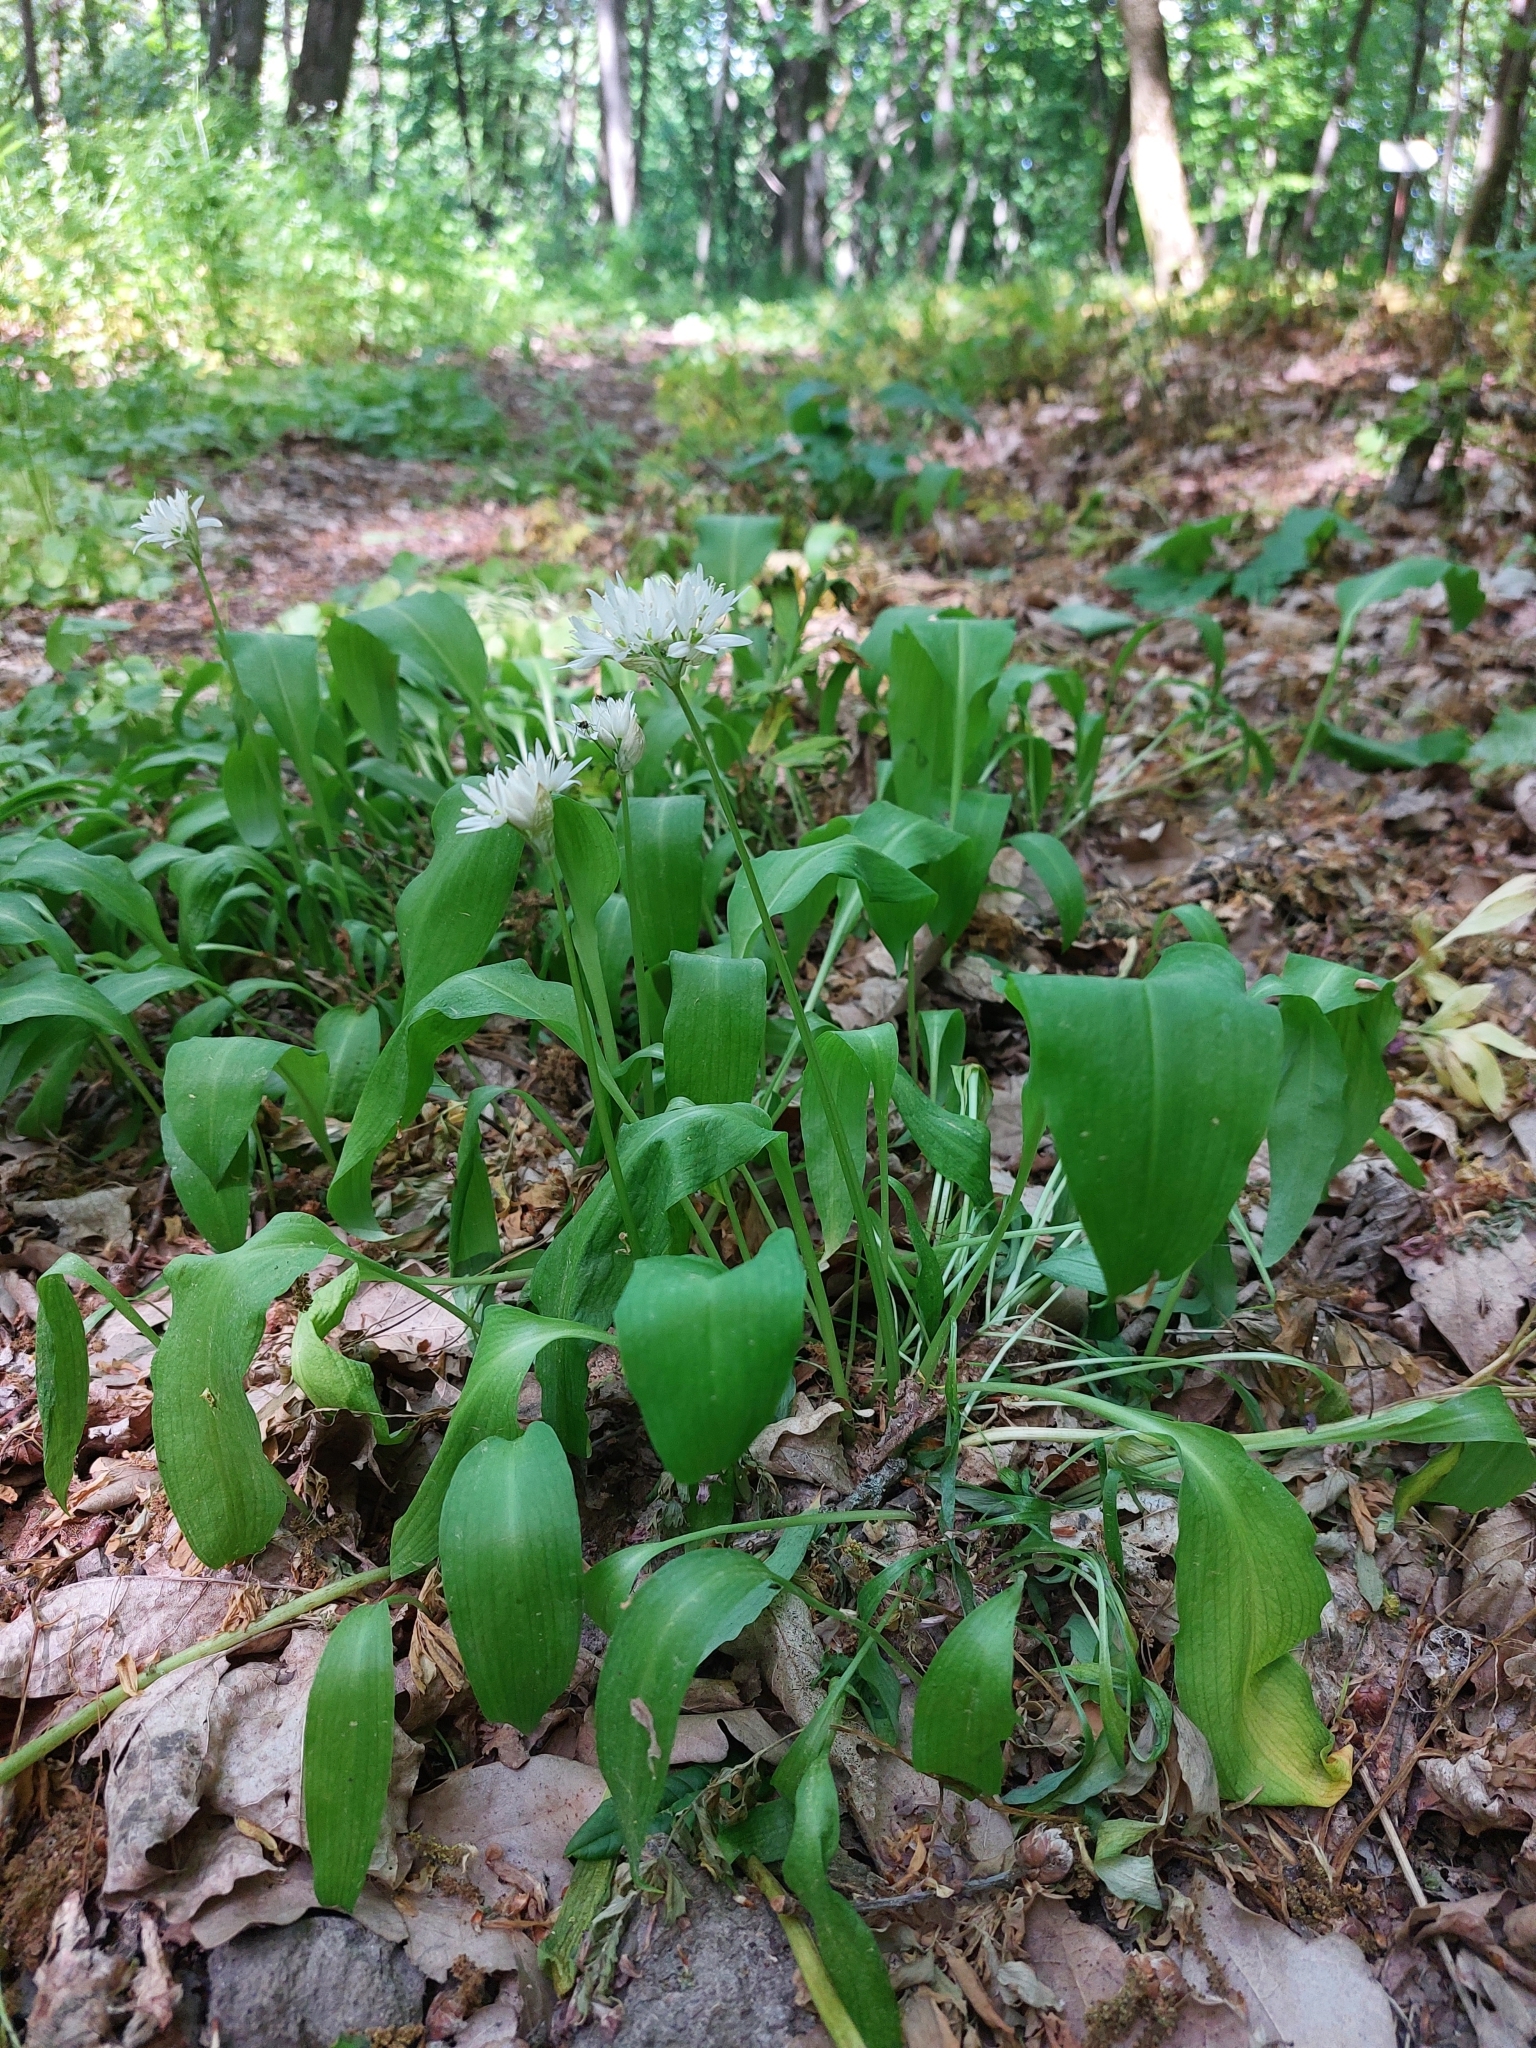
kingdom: Plantae
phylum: Tracheophyta
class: Liliopsida
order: Asparagales
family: Amaryllidaceae
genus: Allium
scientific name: Allium ursinum
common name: Ramsons
